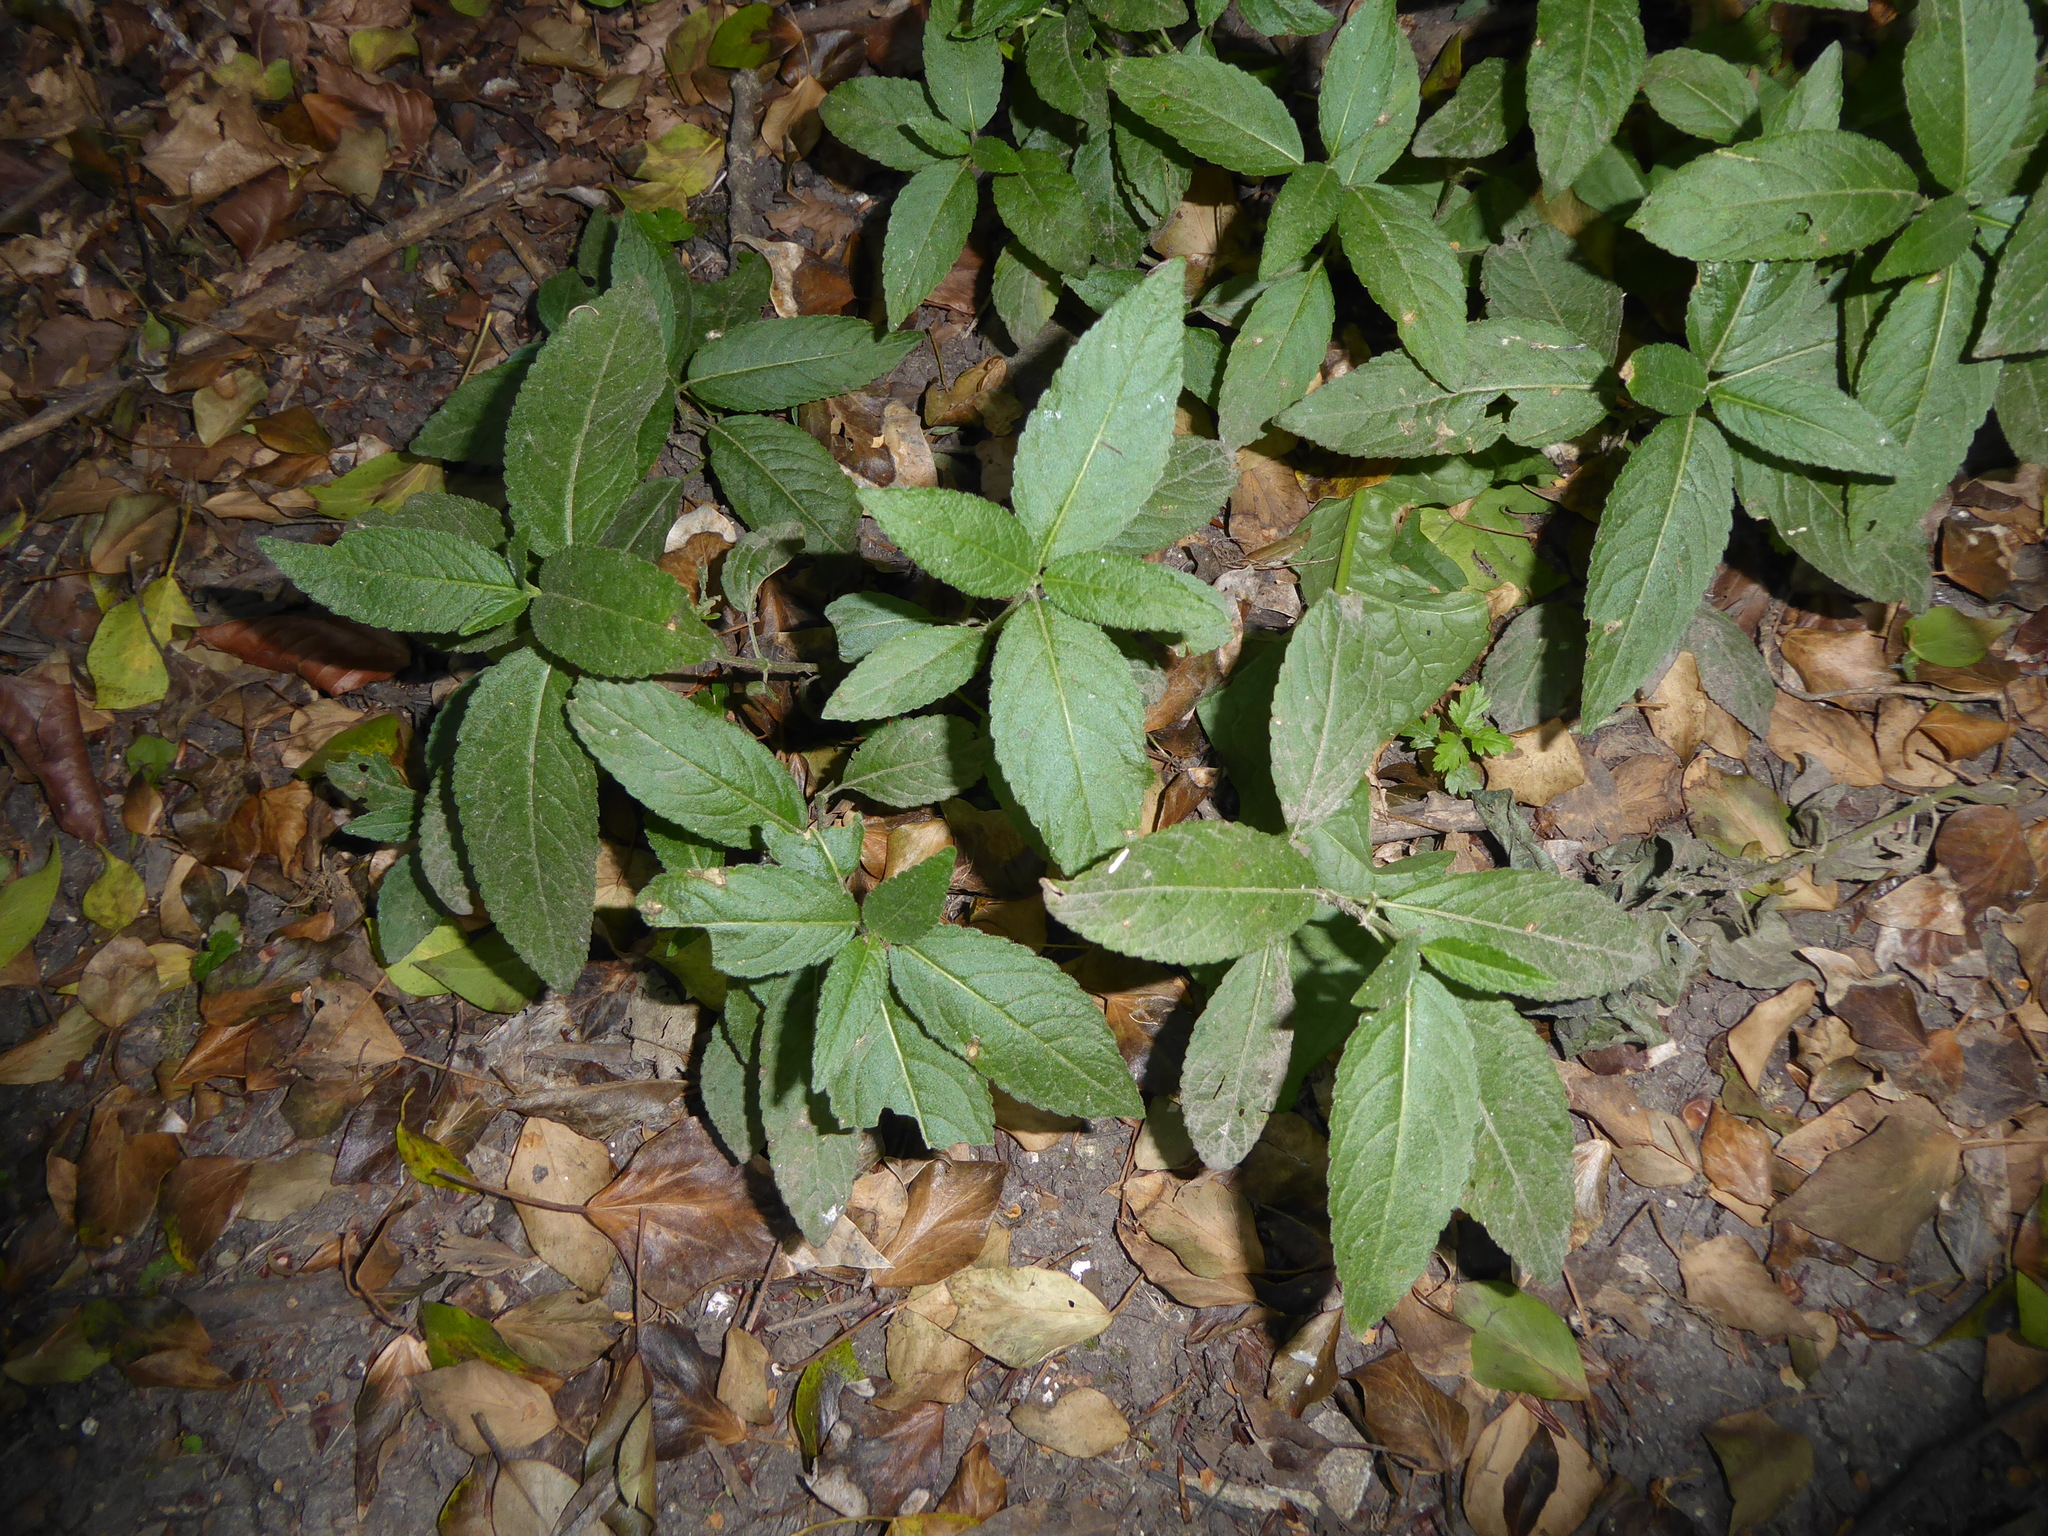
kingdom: Plantae
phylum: Tracheophyta
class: Magnoliopsida
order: Malpighiales
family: Euphorbiaceae
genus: Mercurialis
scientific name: Mercurialis perennis
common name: Dog mercury
